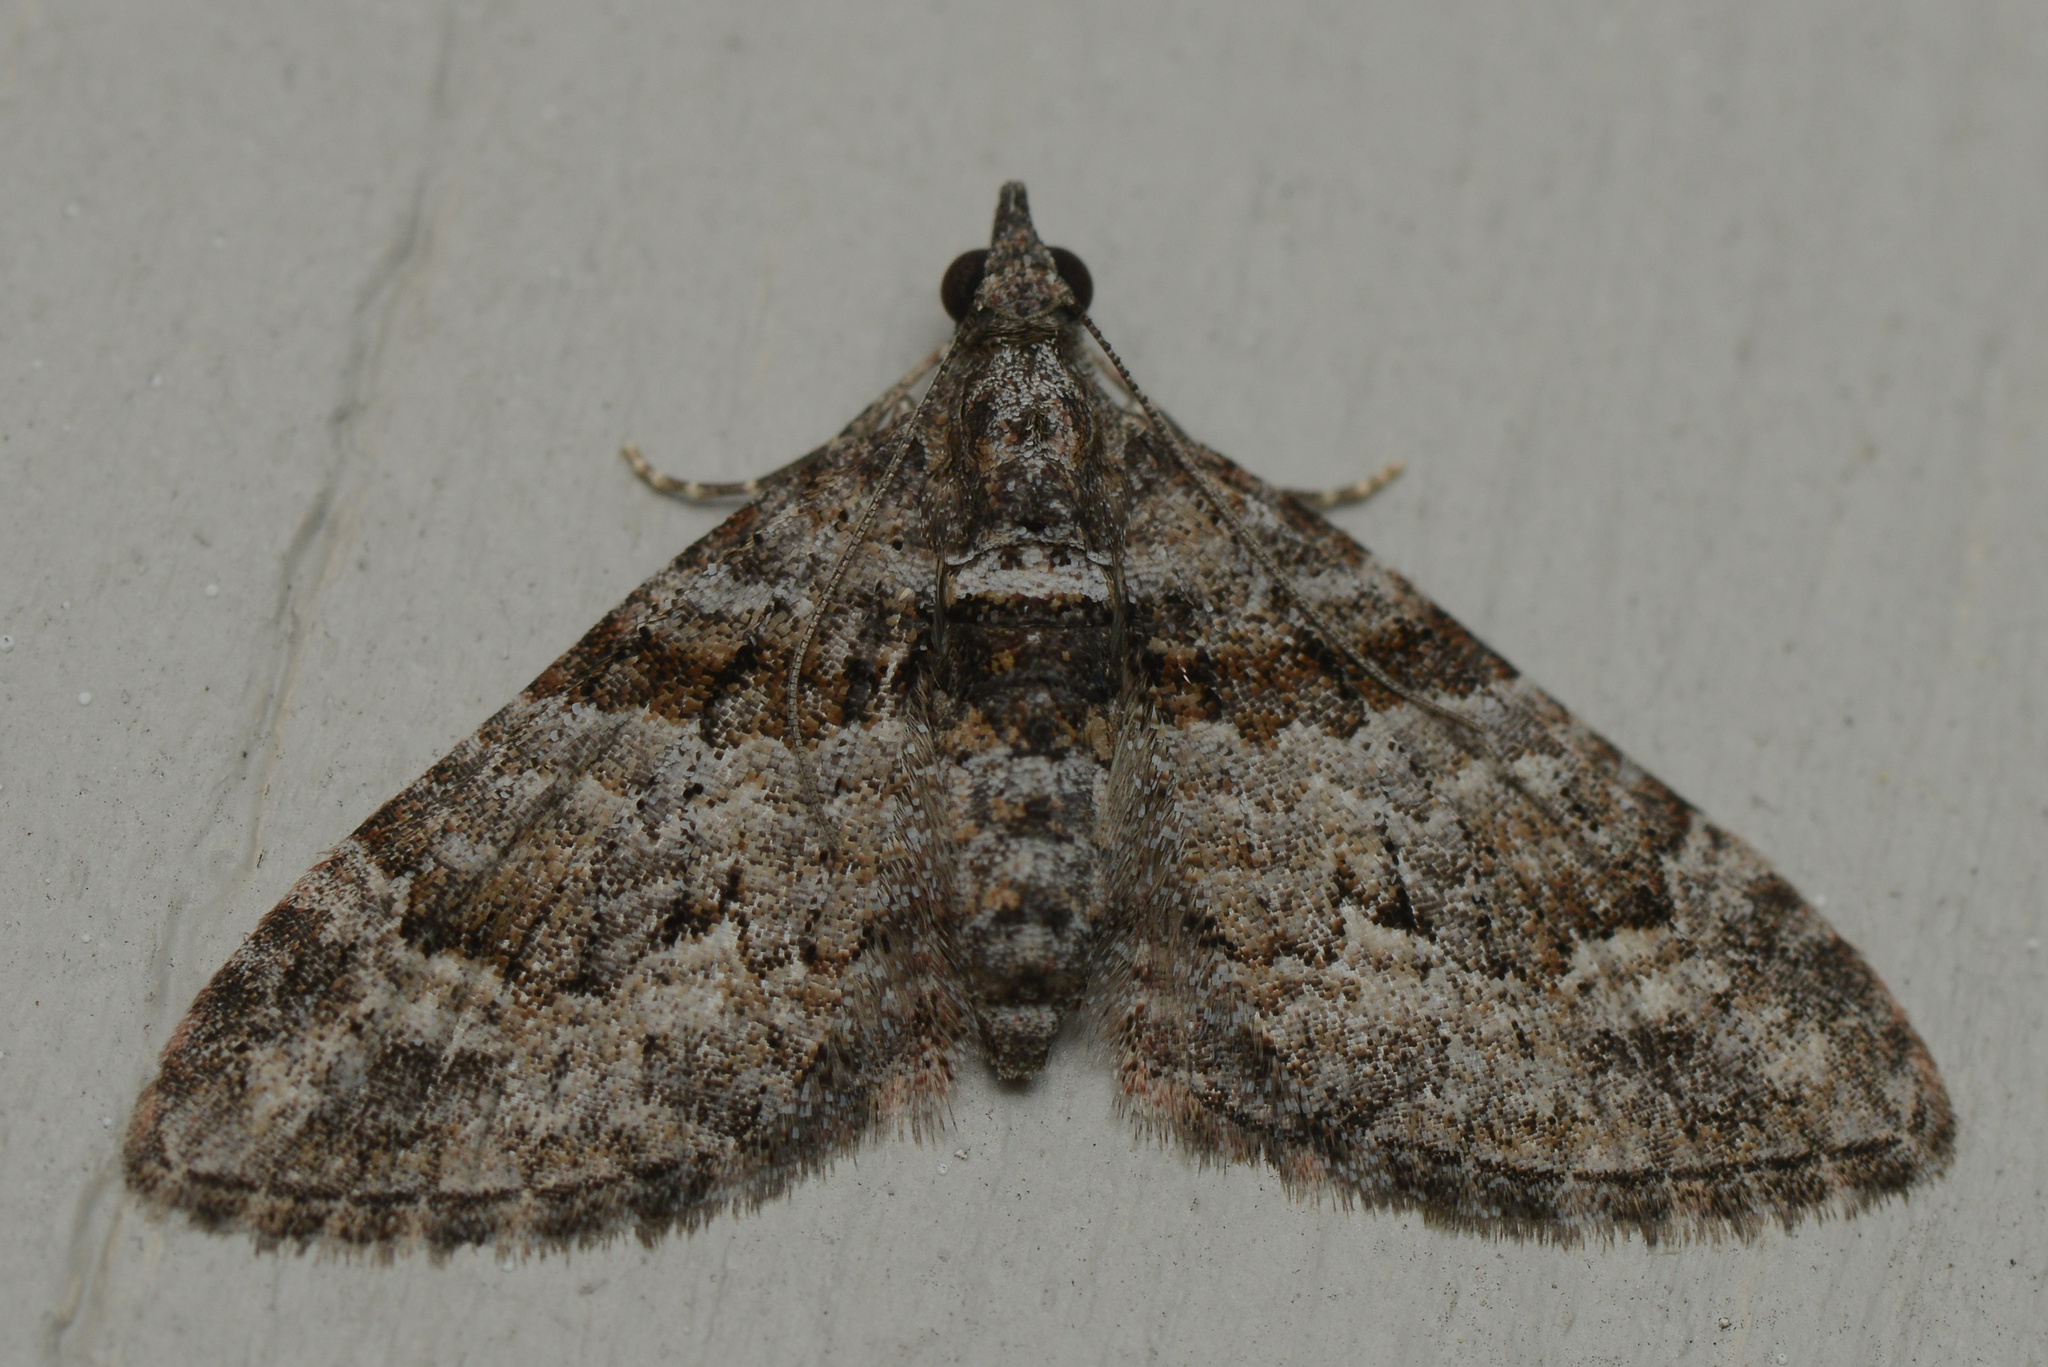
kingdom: Animalia
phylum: Arthropoda
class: Insecta
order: Lepidoptera
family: Geometridae
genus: Phrissogonus
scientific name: Phrissogonus laticostata
